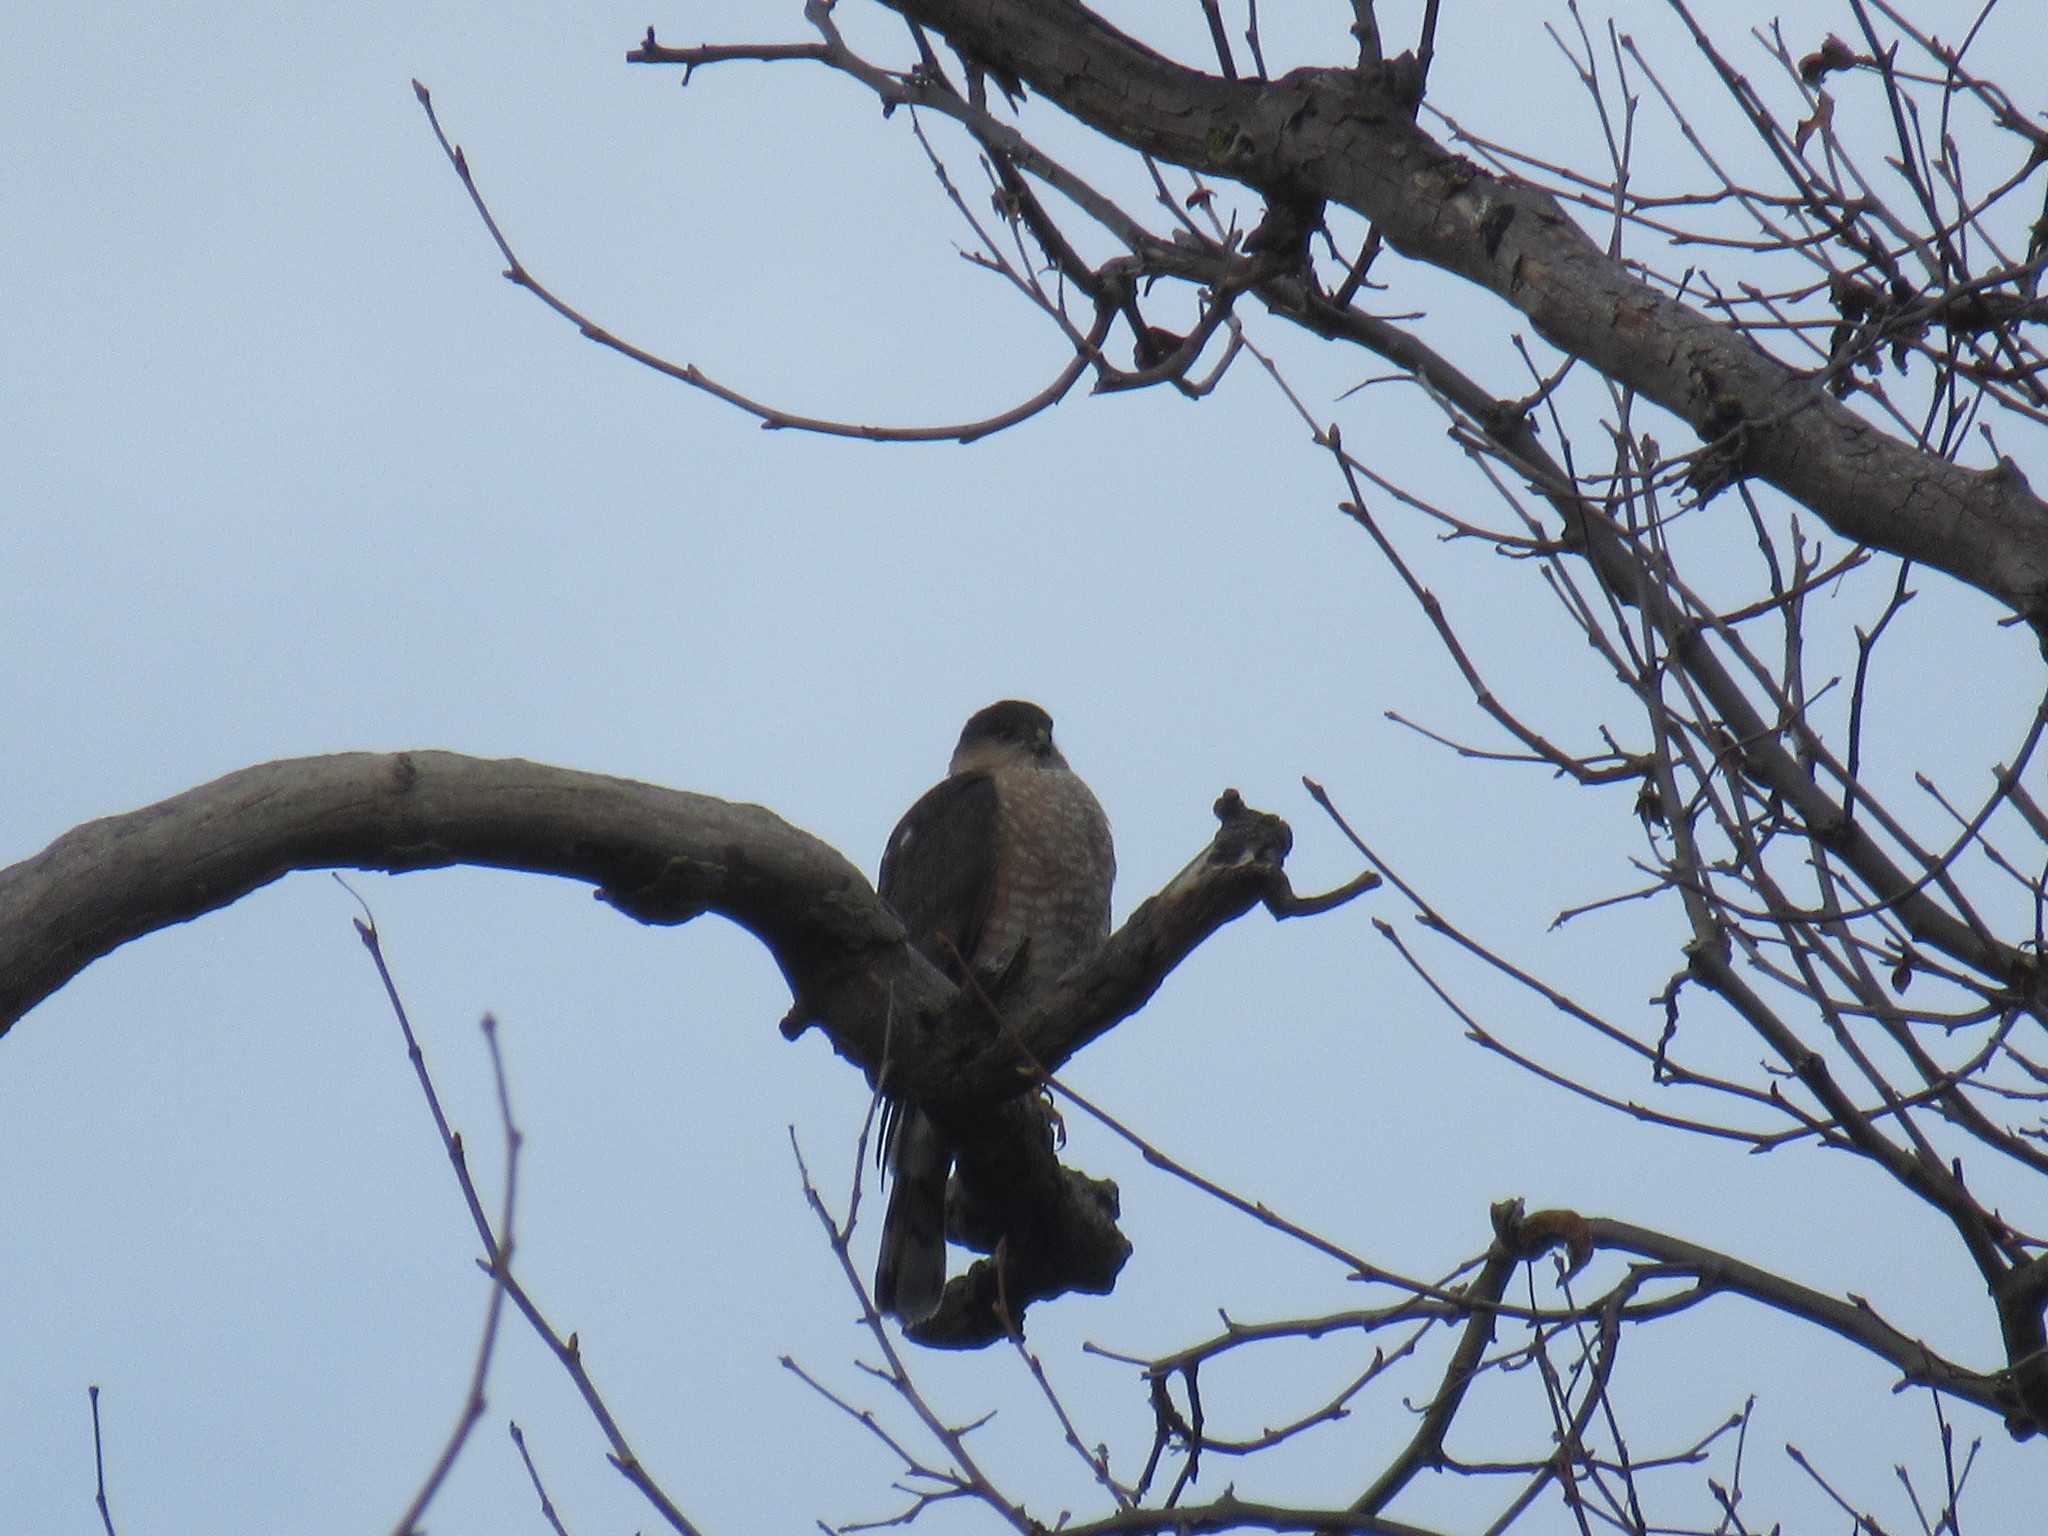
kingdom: Animalia
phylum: Chordata
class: Aves
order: Accipitriformes
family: Accipitridae
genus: Accipiter
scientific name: Accipiter striatus
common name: Sharp-shinned hawk
